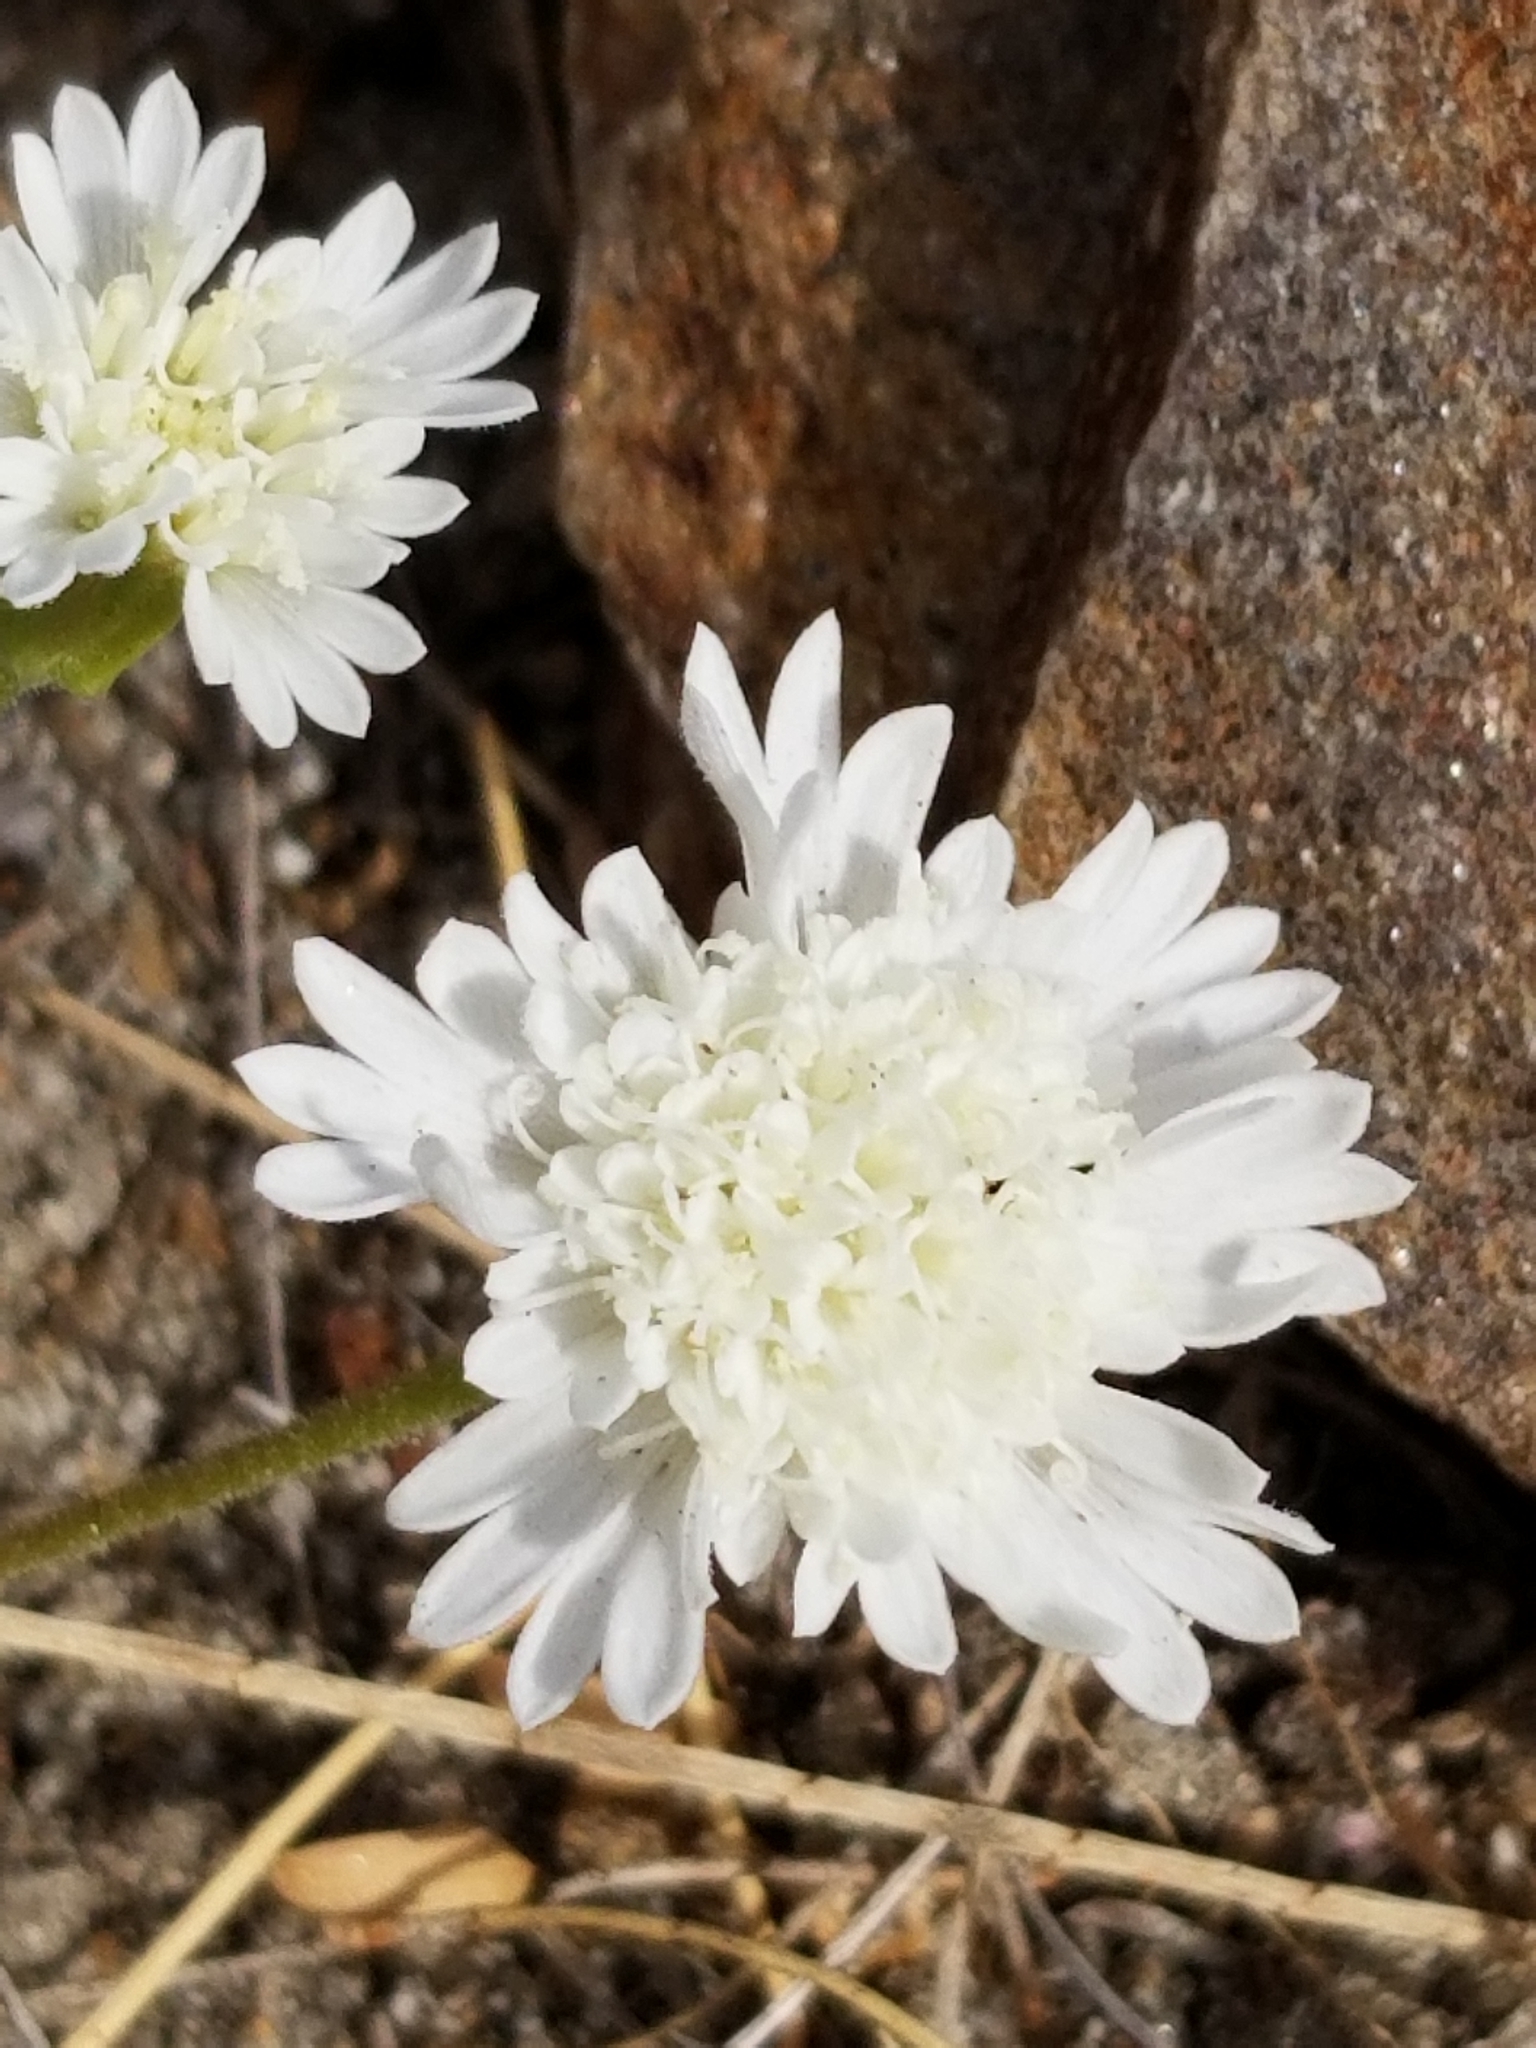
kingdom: Plantae
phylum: Tracheophyta
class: Magnoliopsida
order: Asterales
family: Asteraceae
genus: Chaenactis
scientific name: Chaenactis fremontii
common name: Fremont pincushion
